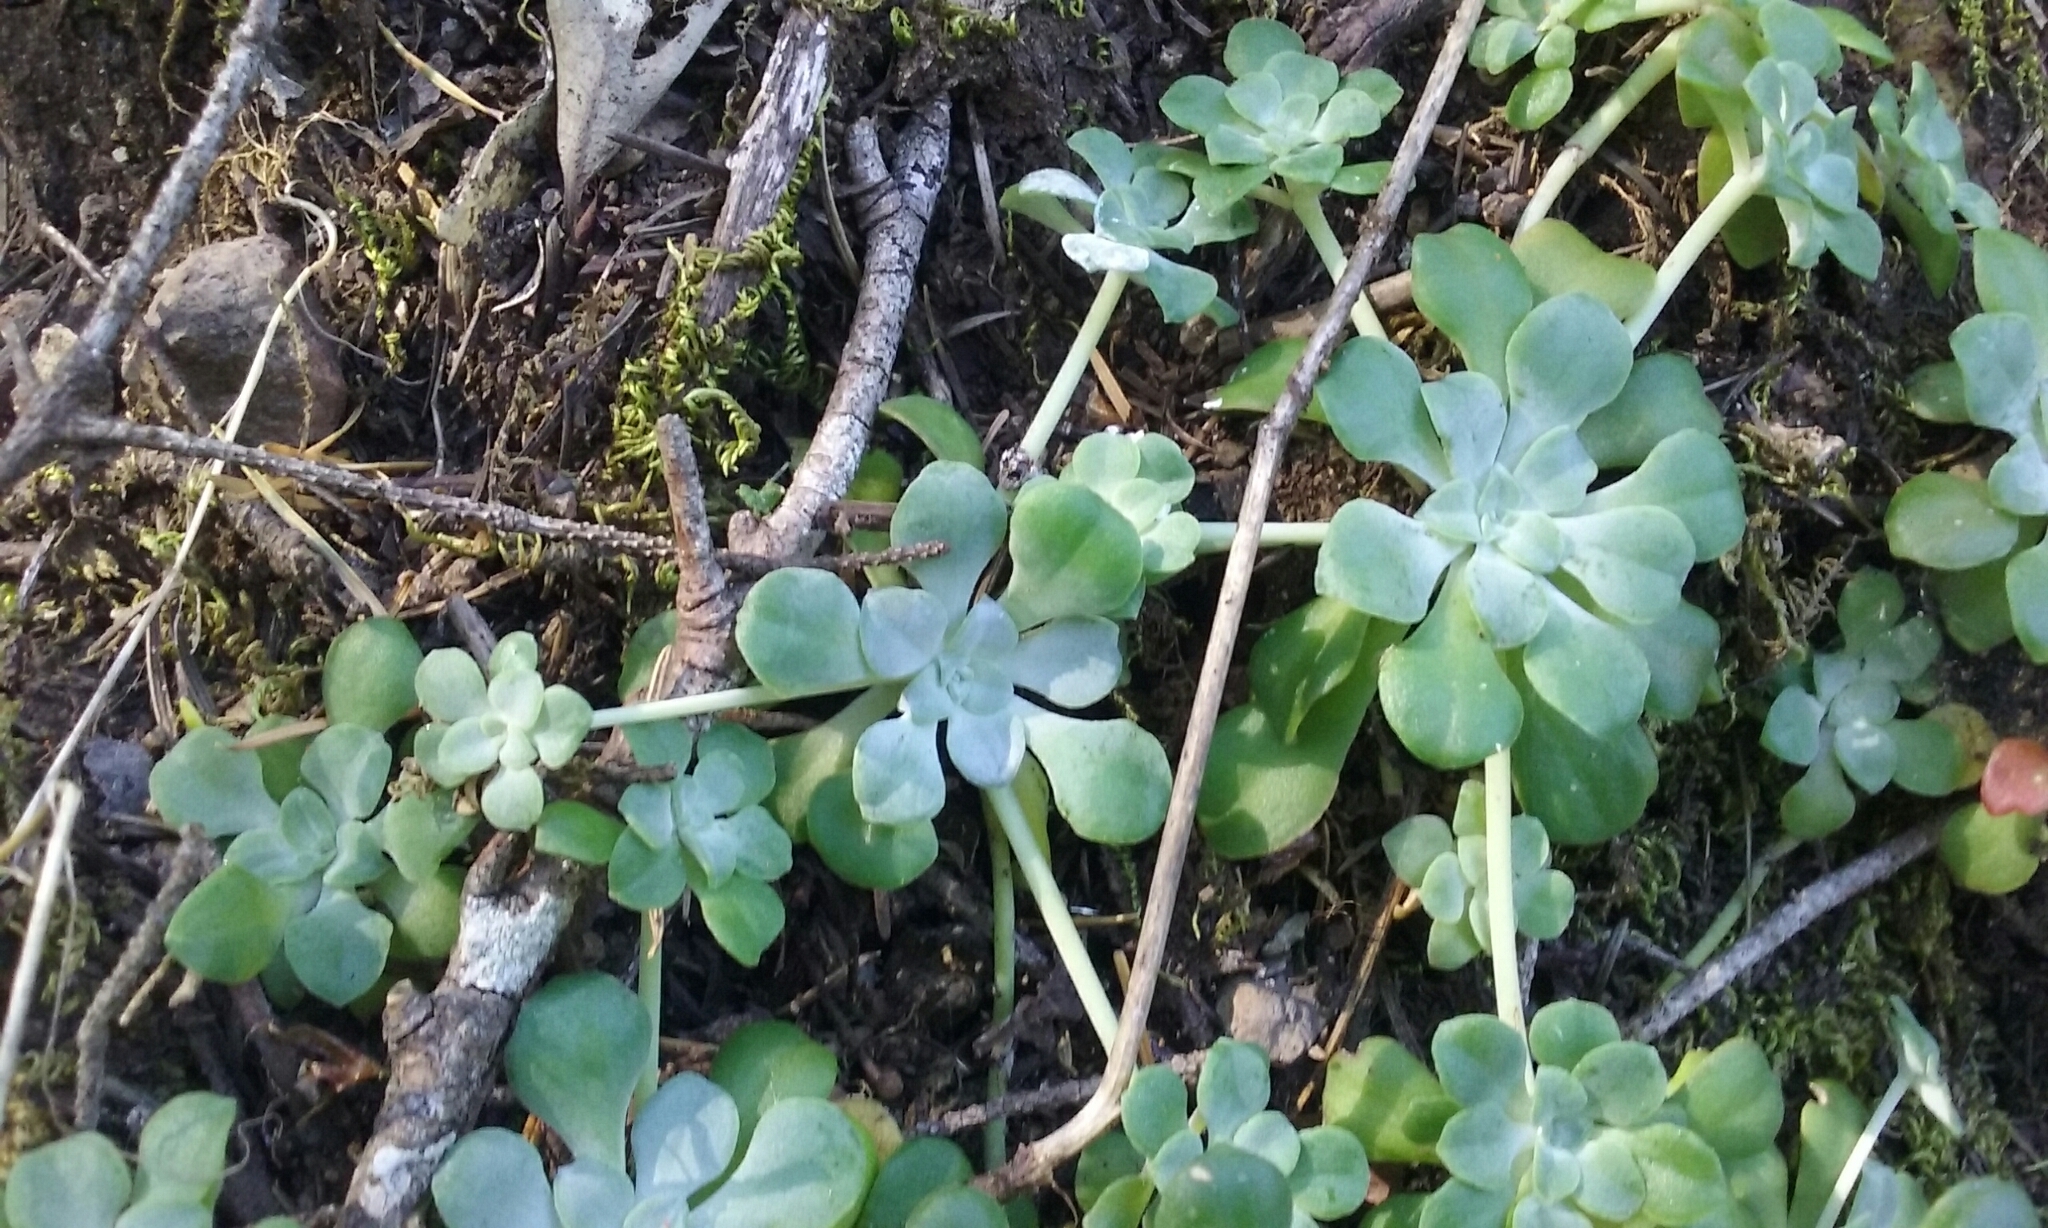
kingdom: Plantae
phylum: Tracheophyta
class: Magnoliopsida
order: Saxifragales
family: Crassulaceae
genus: Sedum
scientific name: Sedum spathulifolium
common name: Colorado stonecrop
